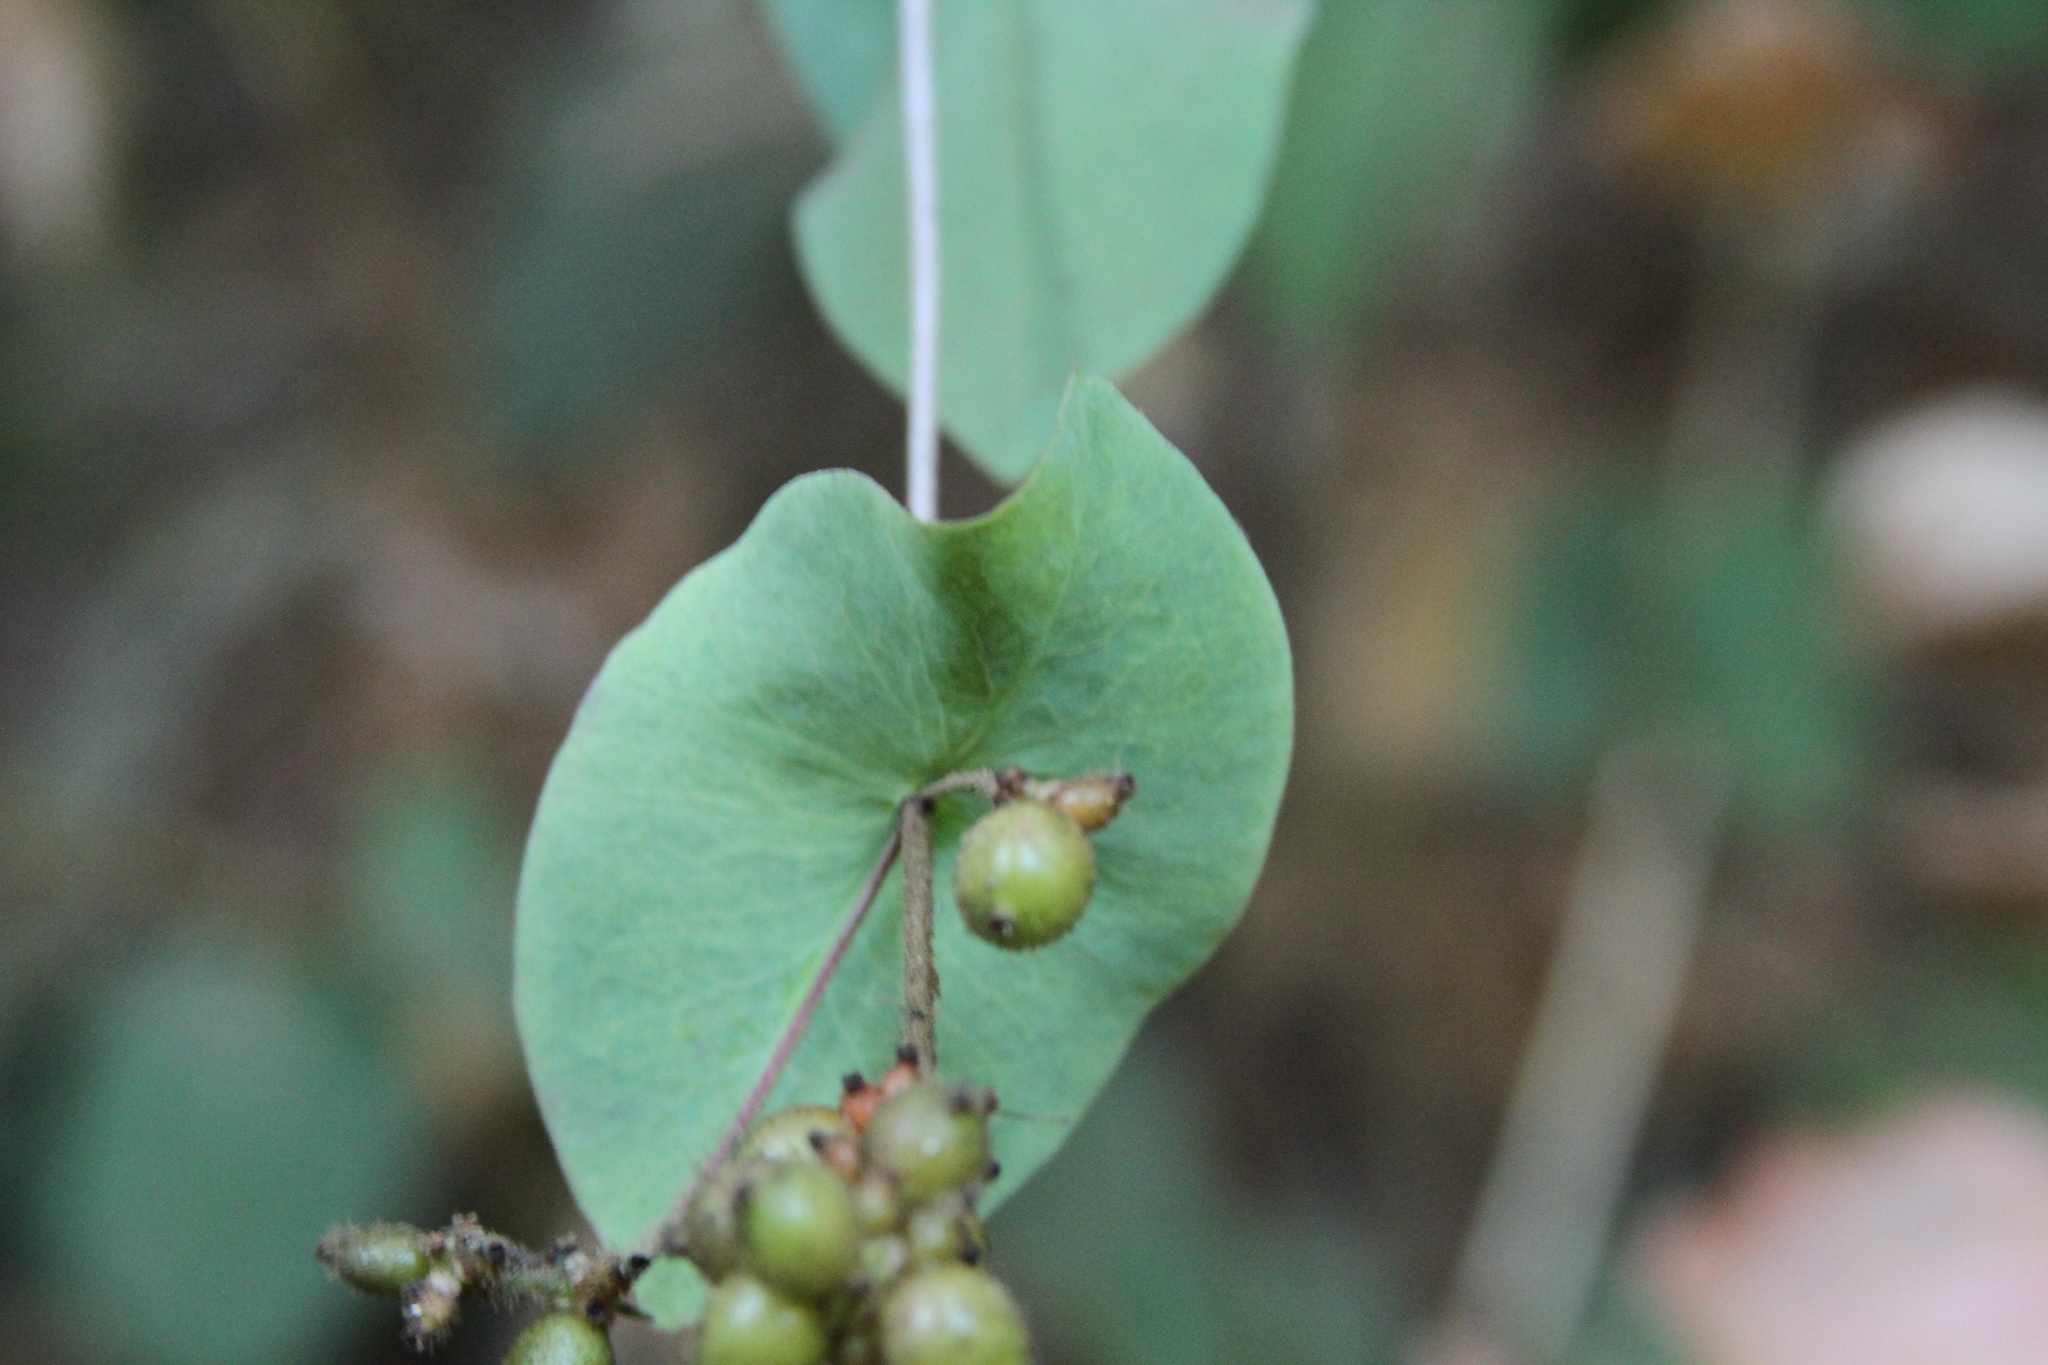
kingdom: Plantae
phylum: Tracheophyta
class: Magnoliopsida
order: Dipsacales
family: Caprifoliaceae
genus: Lonicera
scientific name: Lonicera hispidula
